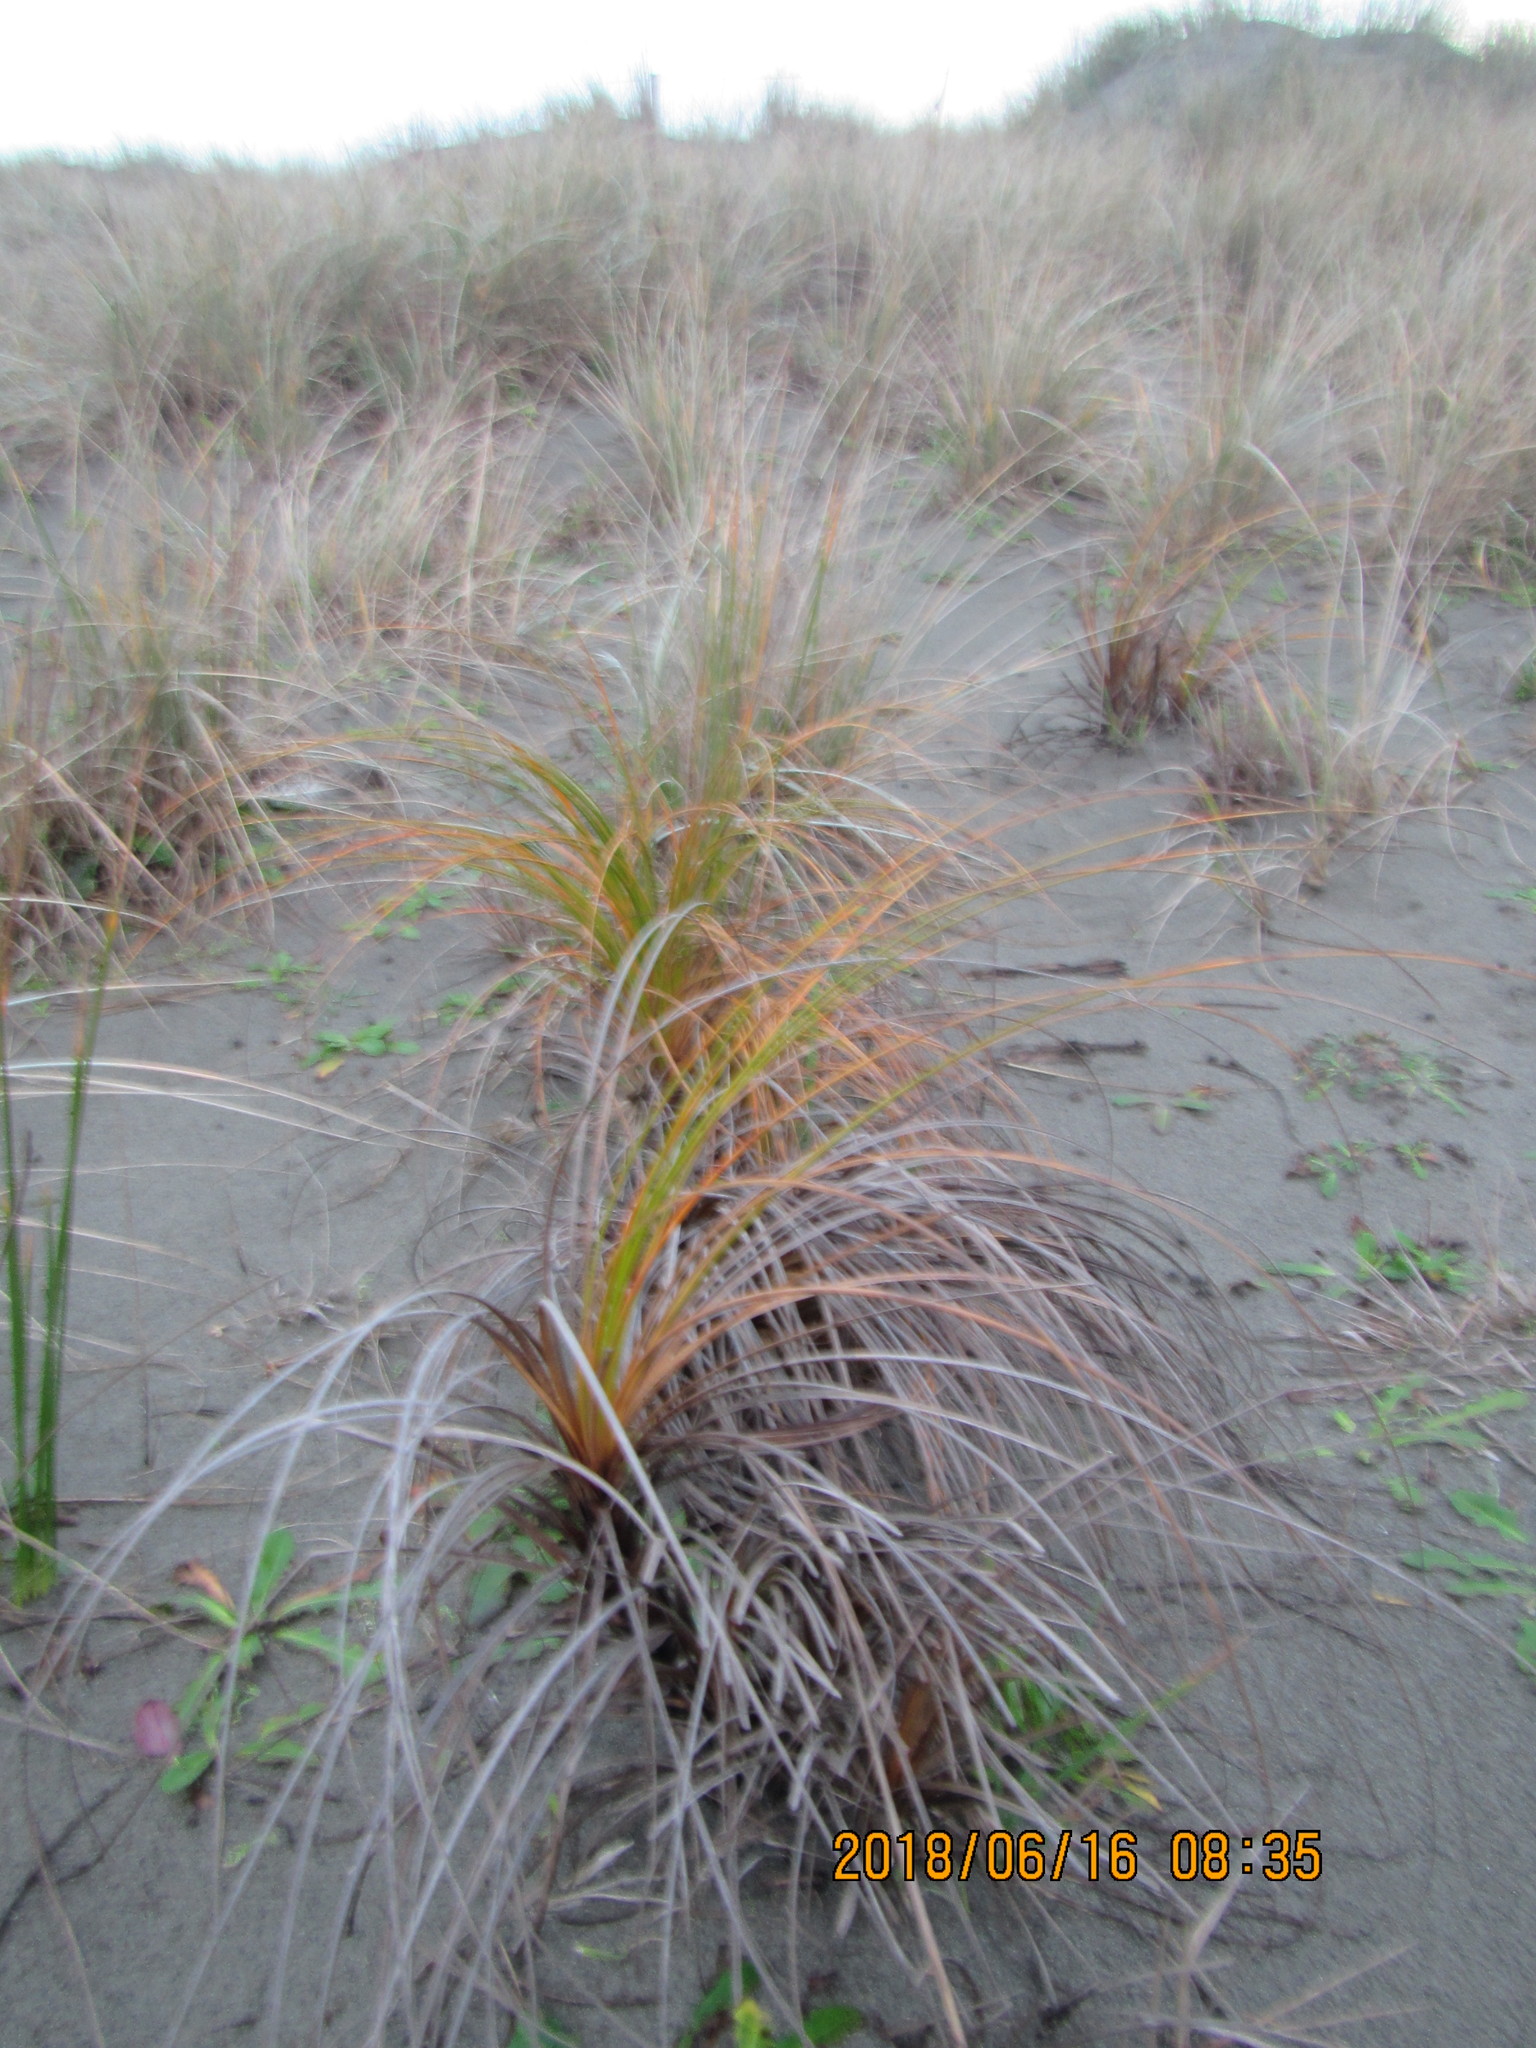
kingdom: Plantae
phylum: Tracheophyta
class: Liliopsida
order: Poales
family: Cyperaceae
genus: Ficinia
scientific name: Ficinia spiralis
